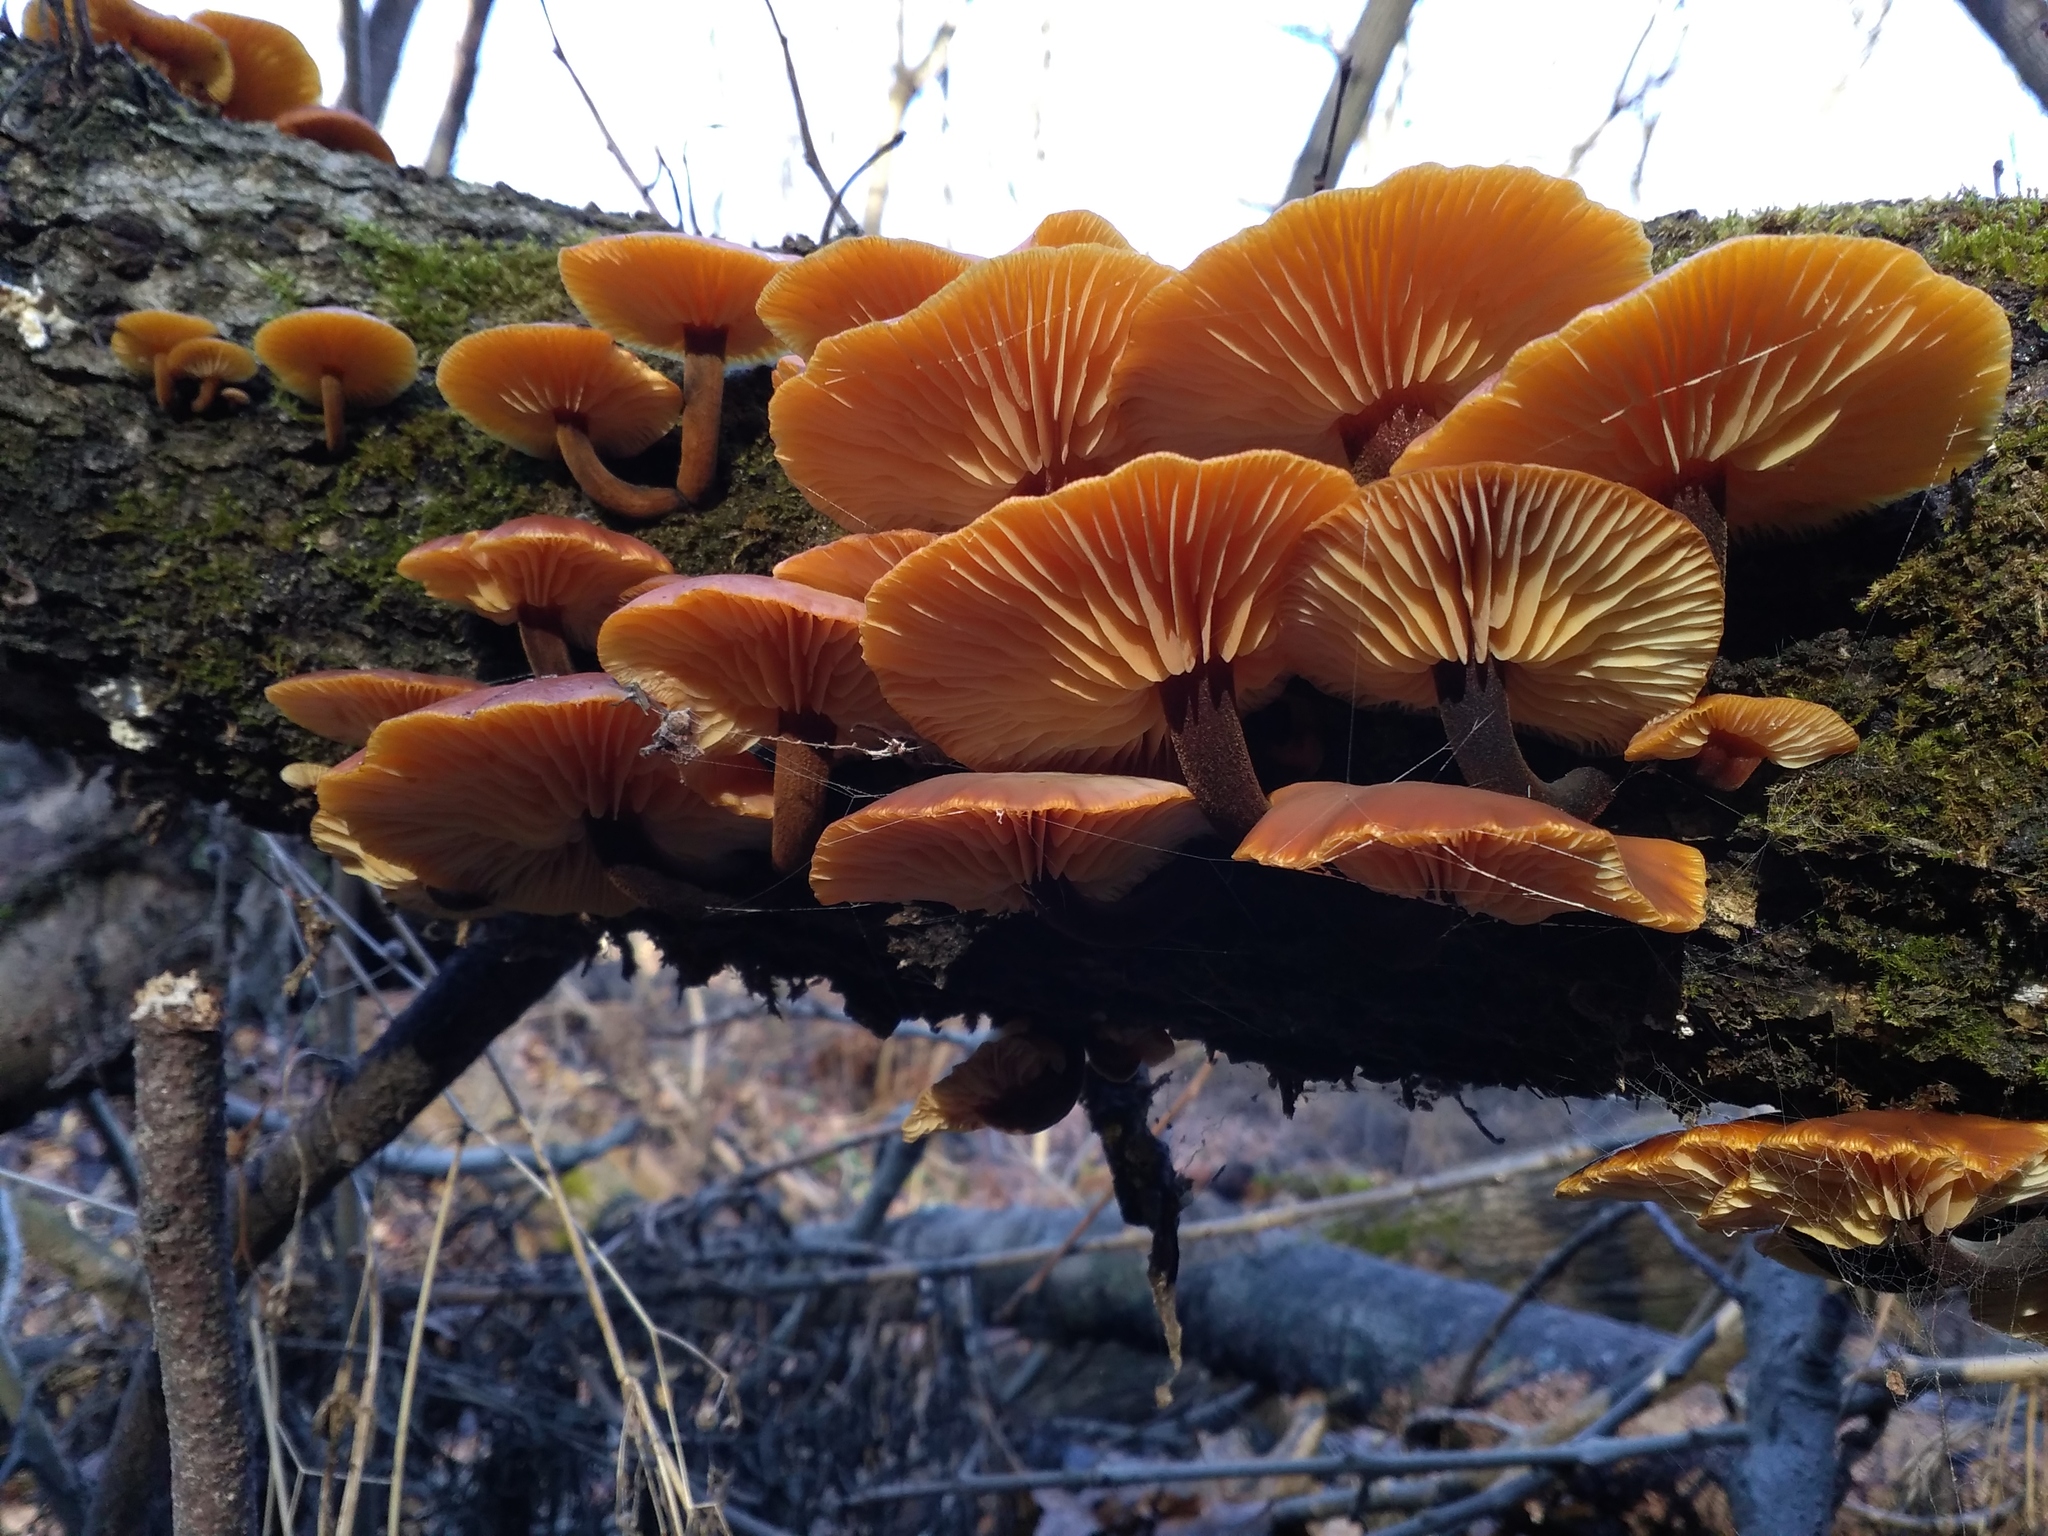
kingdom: Fungi
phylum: Basidiomycota
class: Agaricomycetes
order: Agaricales
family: Physalacriaceae
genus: Flammulina
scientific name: Flammulina
